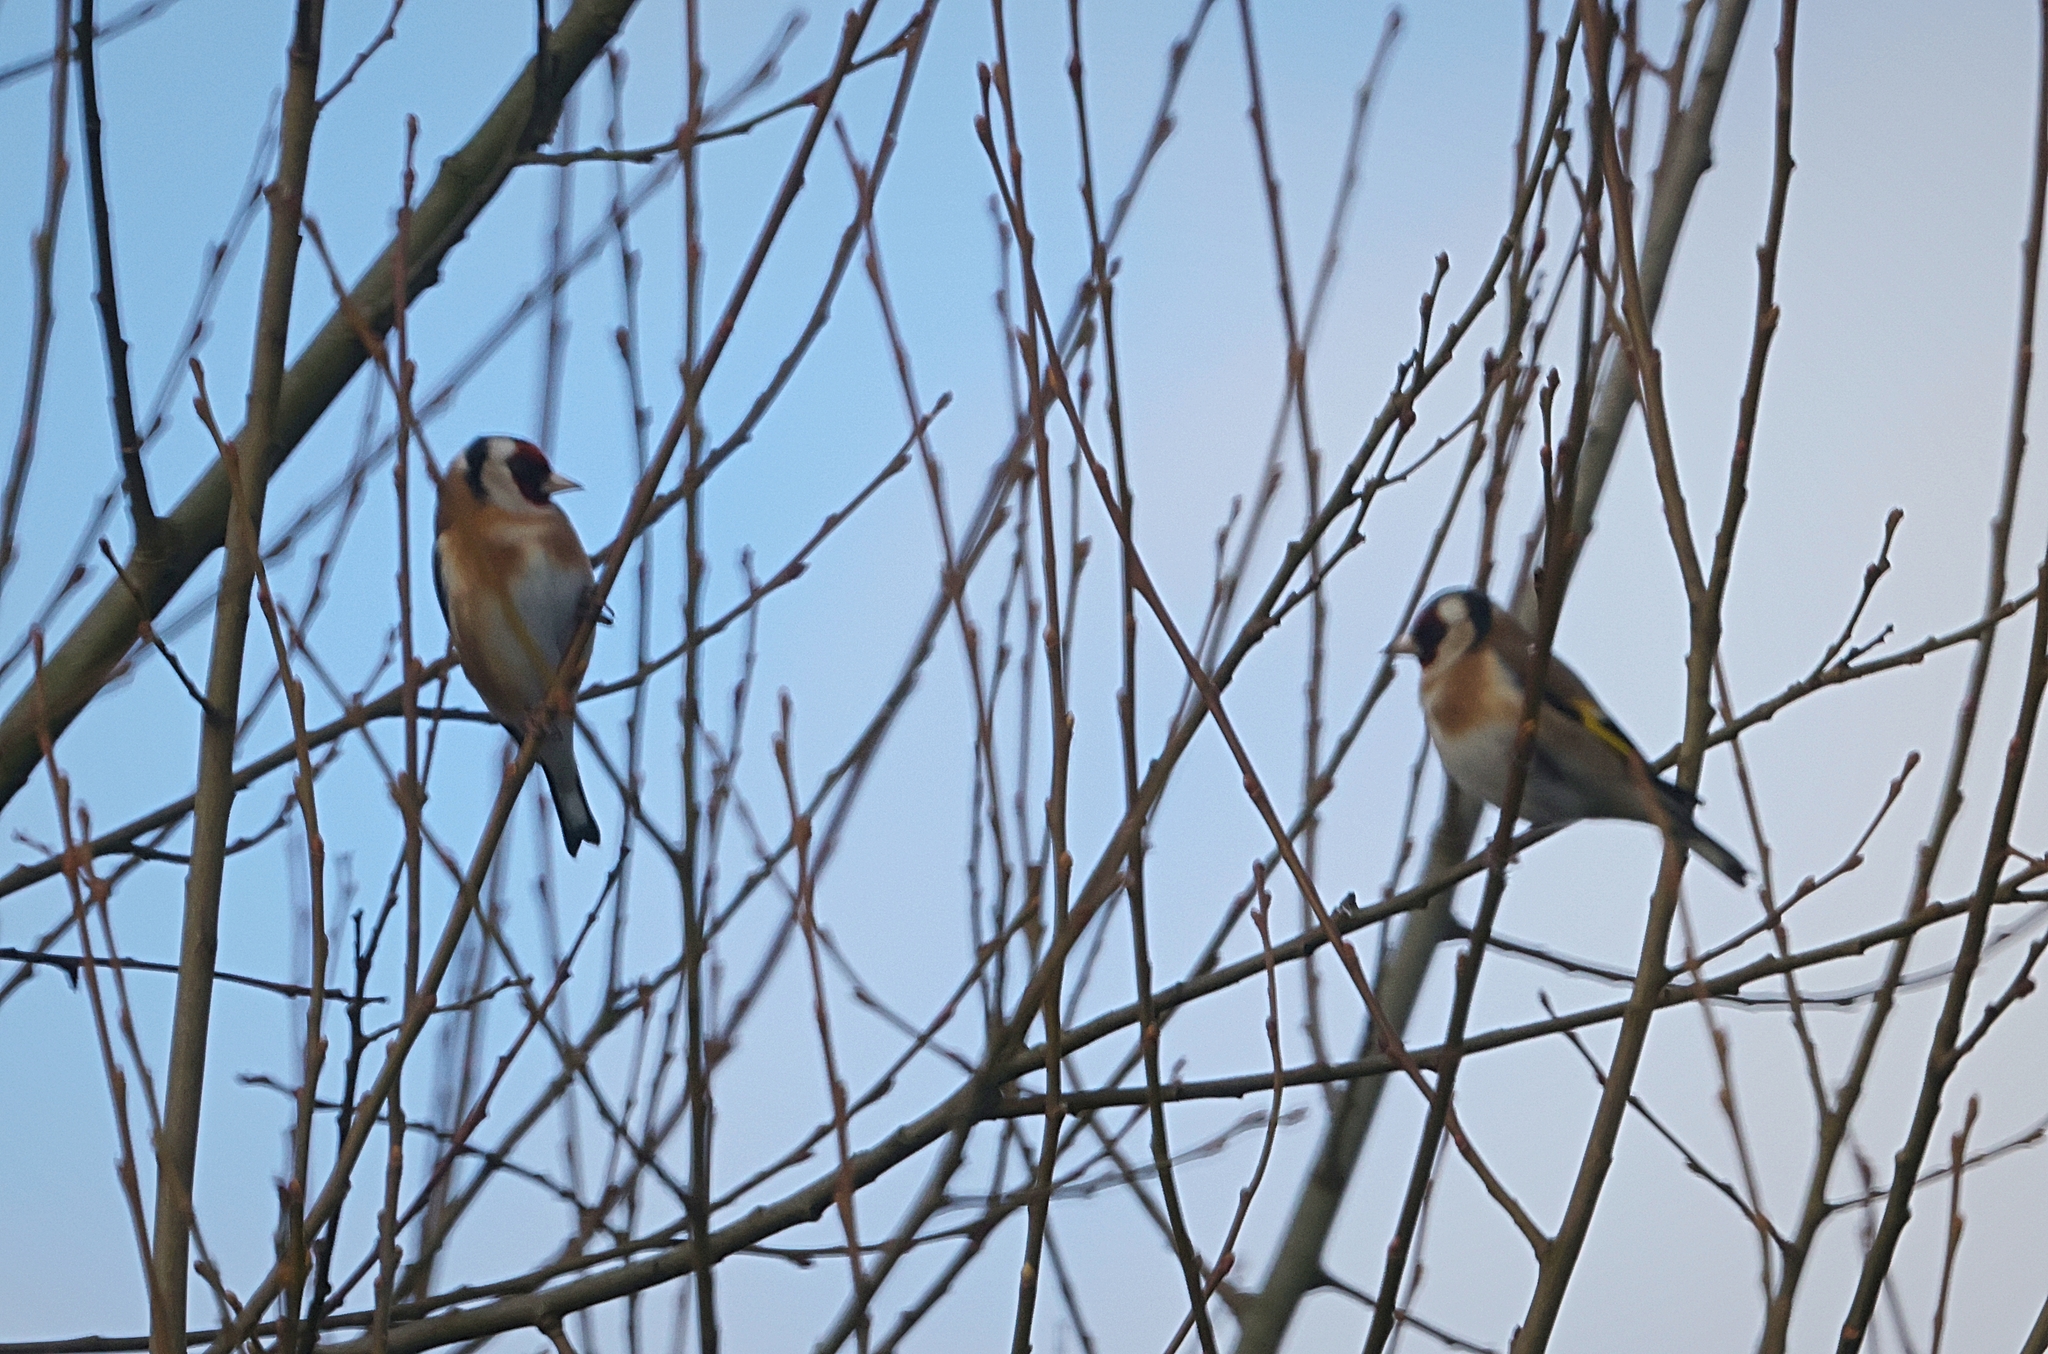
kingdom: Animalia
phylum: Chordata
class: Aves
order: Passeriformes
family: Fringillidae
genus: Carduelis
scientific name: Carduelis carduelis
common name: European goldfinch
